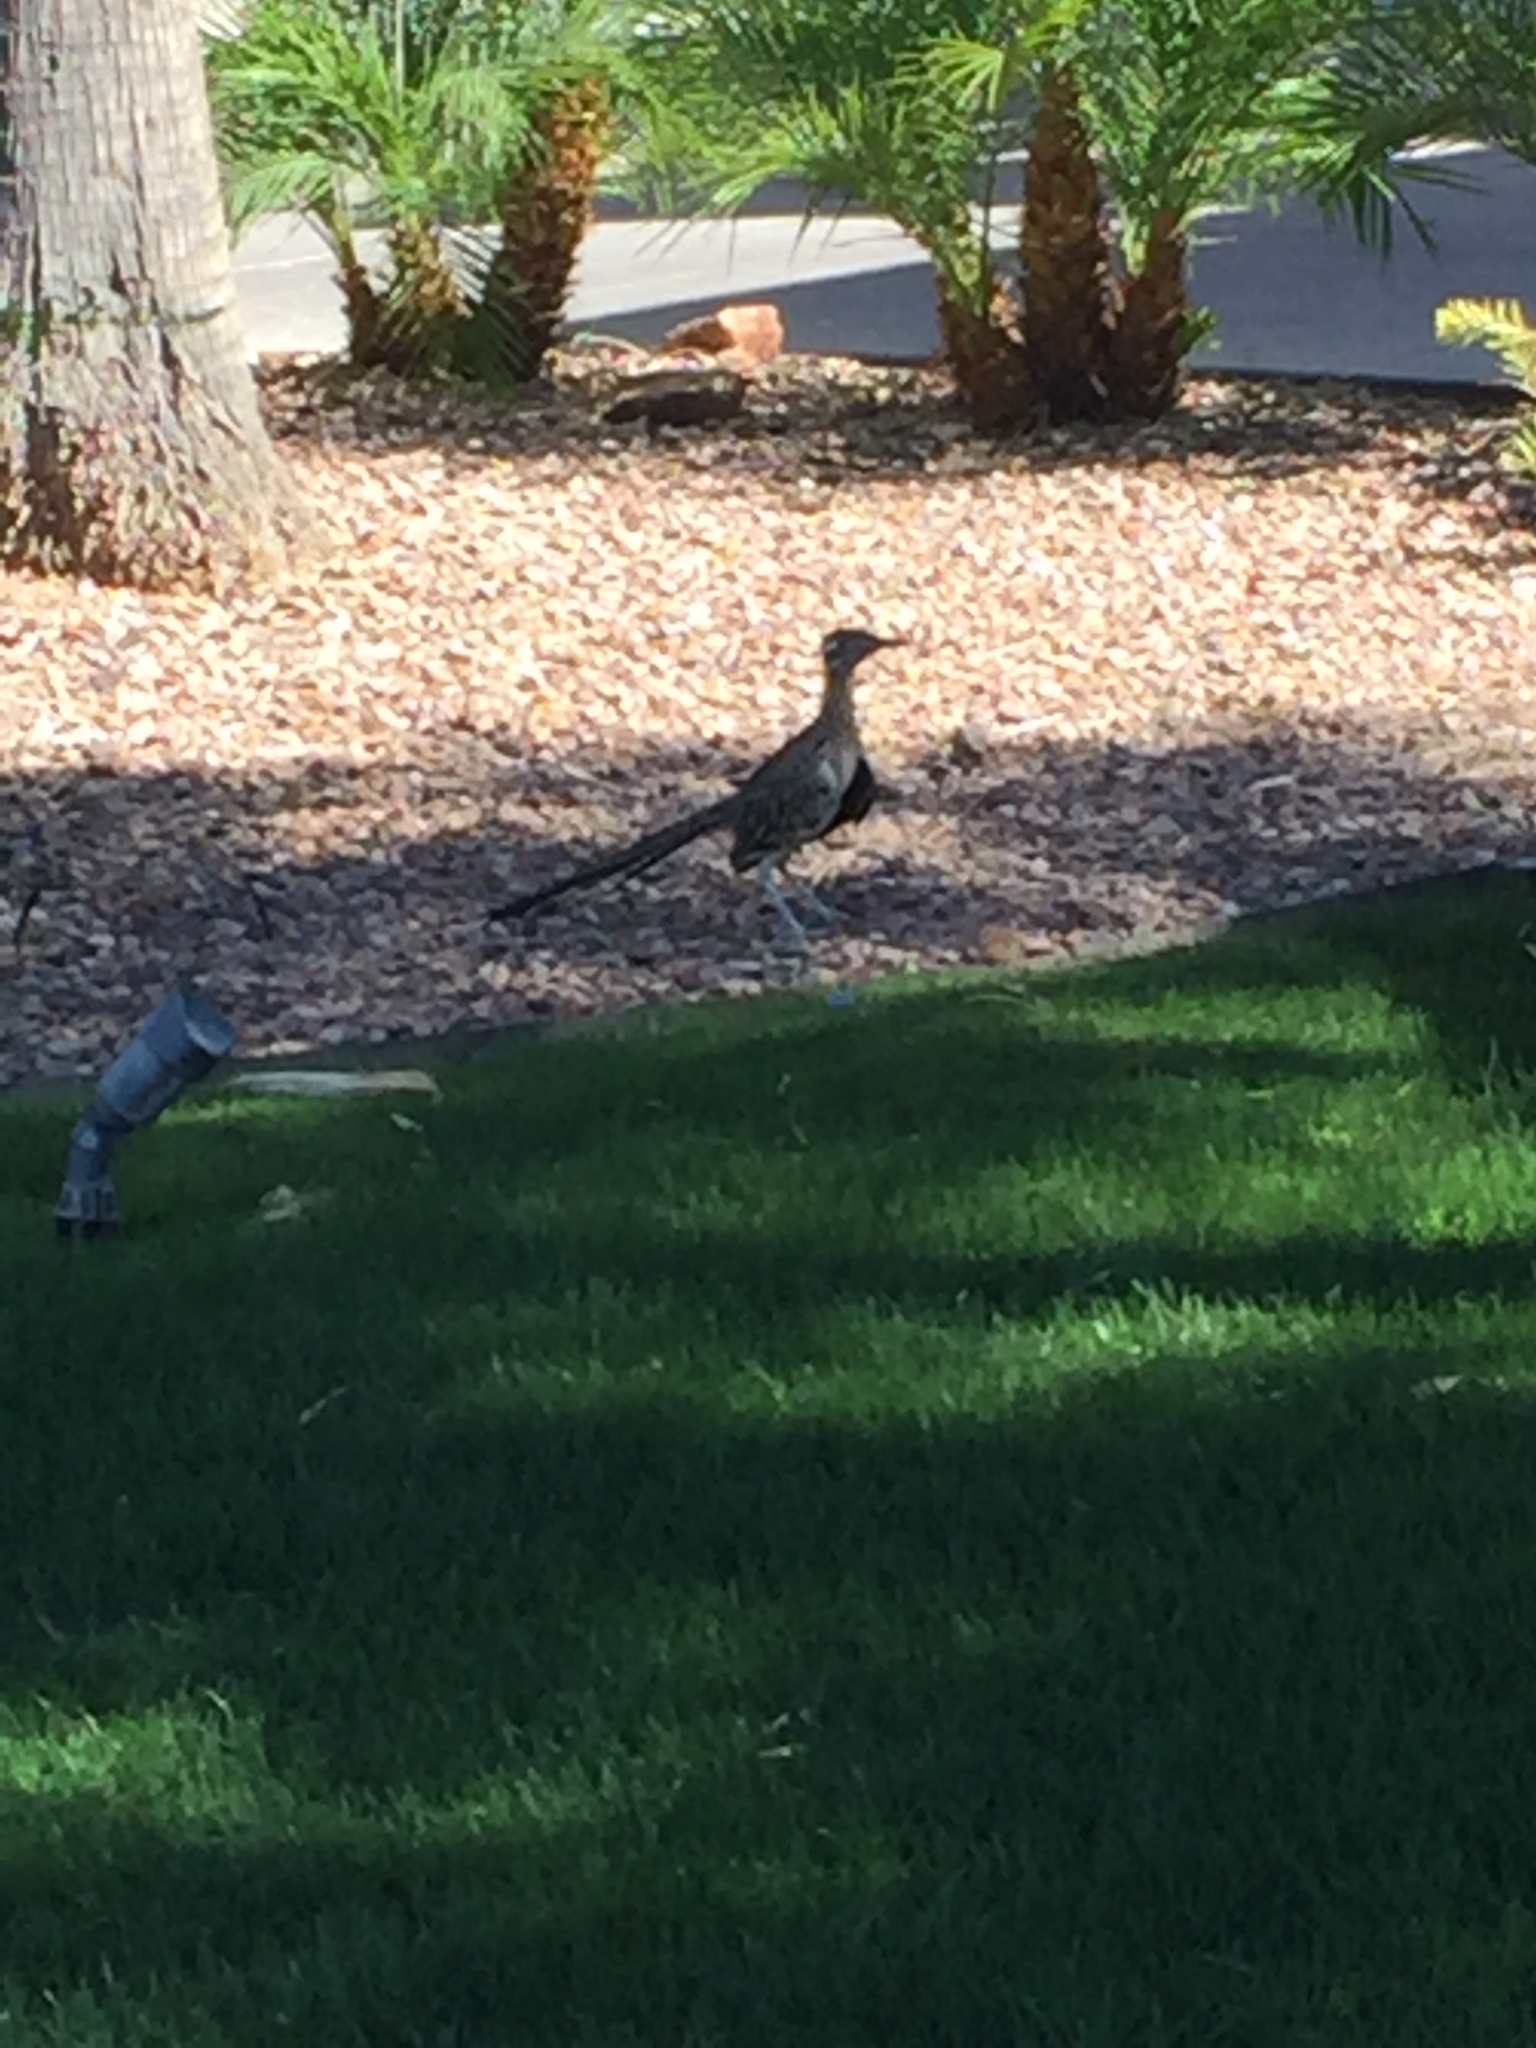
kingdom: Animalia
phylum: Chordata
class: Aves
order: Cuculiformes
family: Cuculidae
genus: Geococcyx
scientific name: Geococcyx californianus
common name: Greater roadrunner
